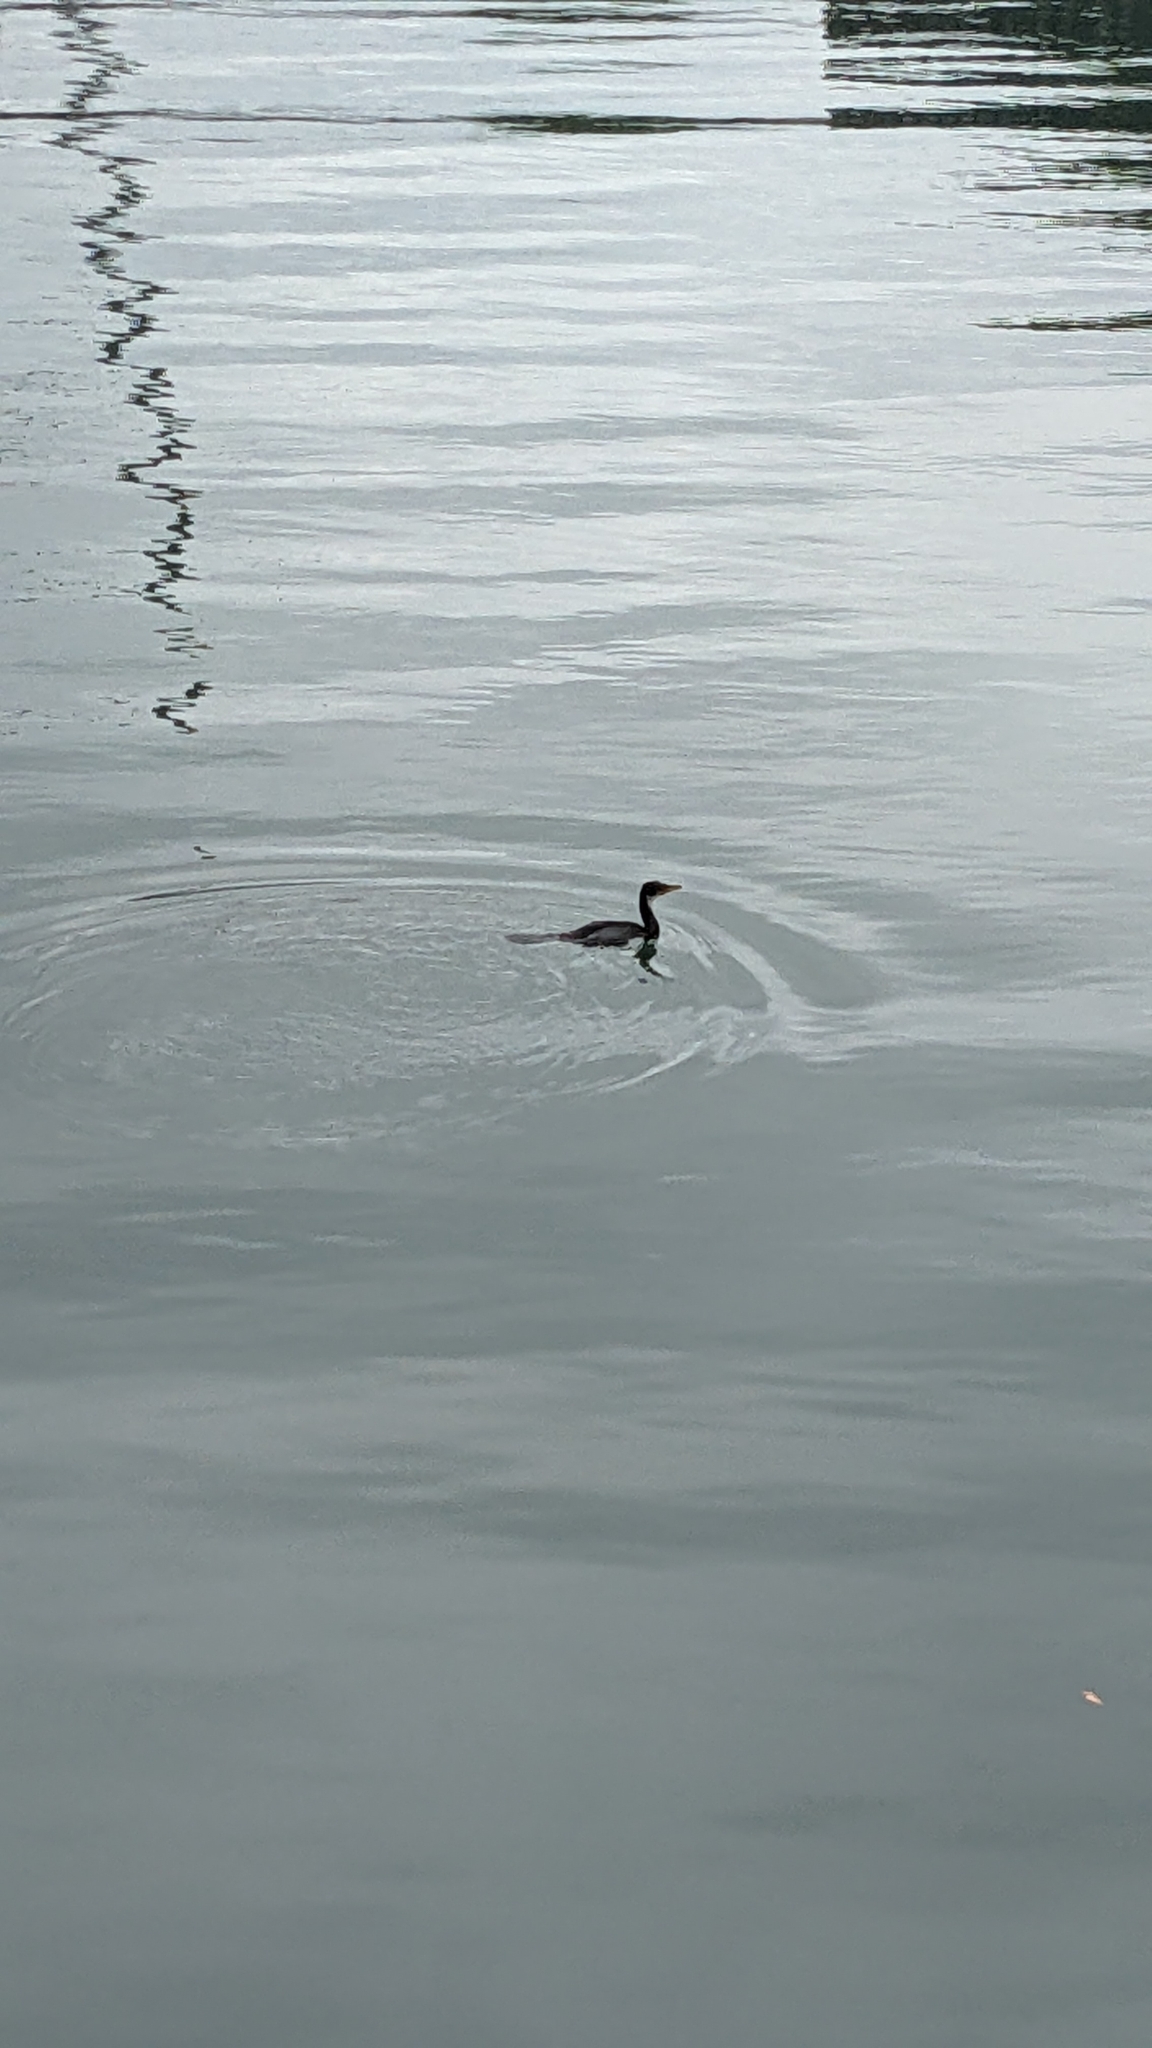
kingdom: Animalia
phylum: Chordata
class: Aves
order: Suliformes
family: Phalacrocoracidae
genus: Microcarbo
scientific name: Microcarbo melanoleucos
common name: Little pied cormorant
